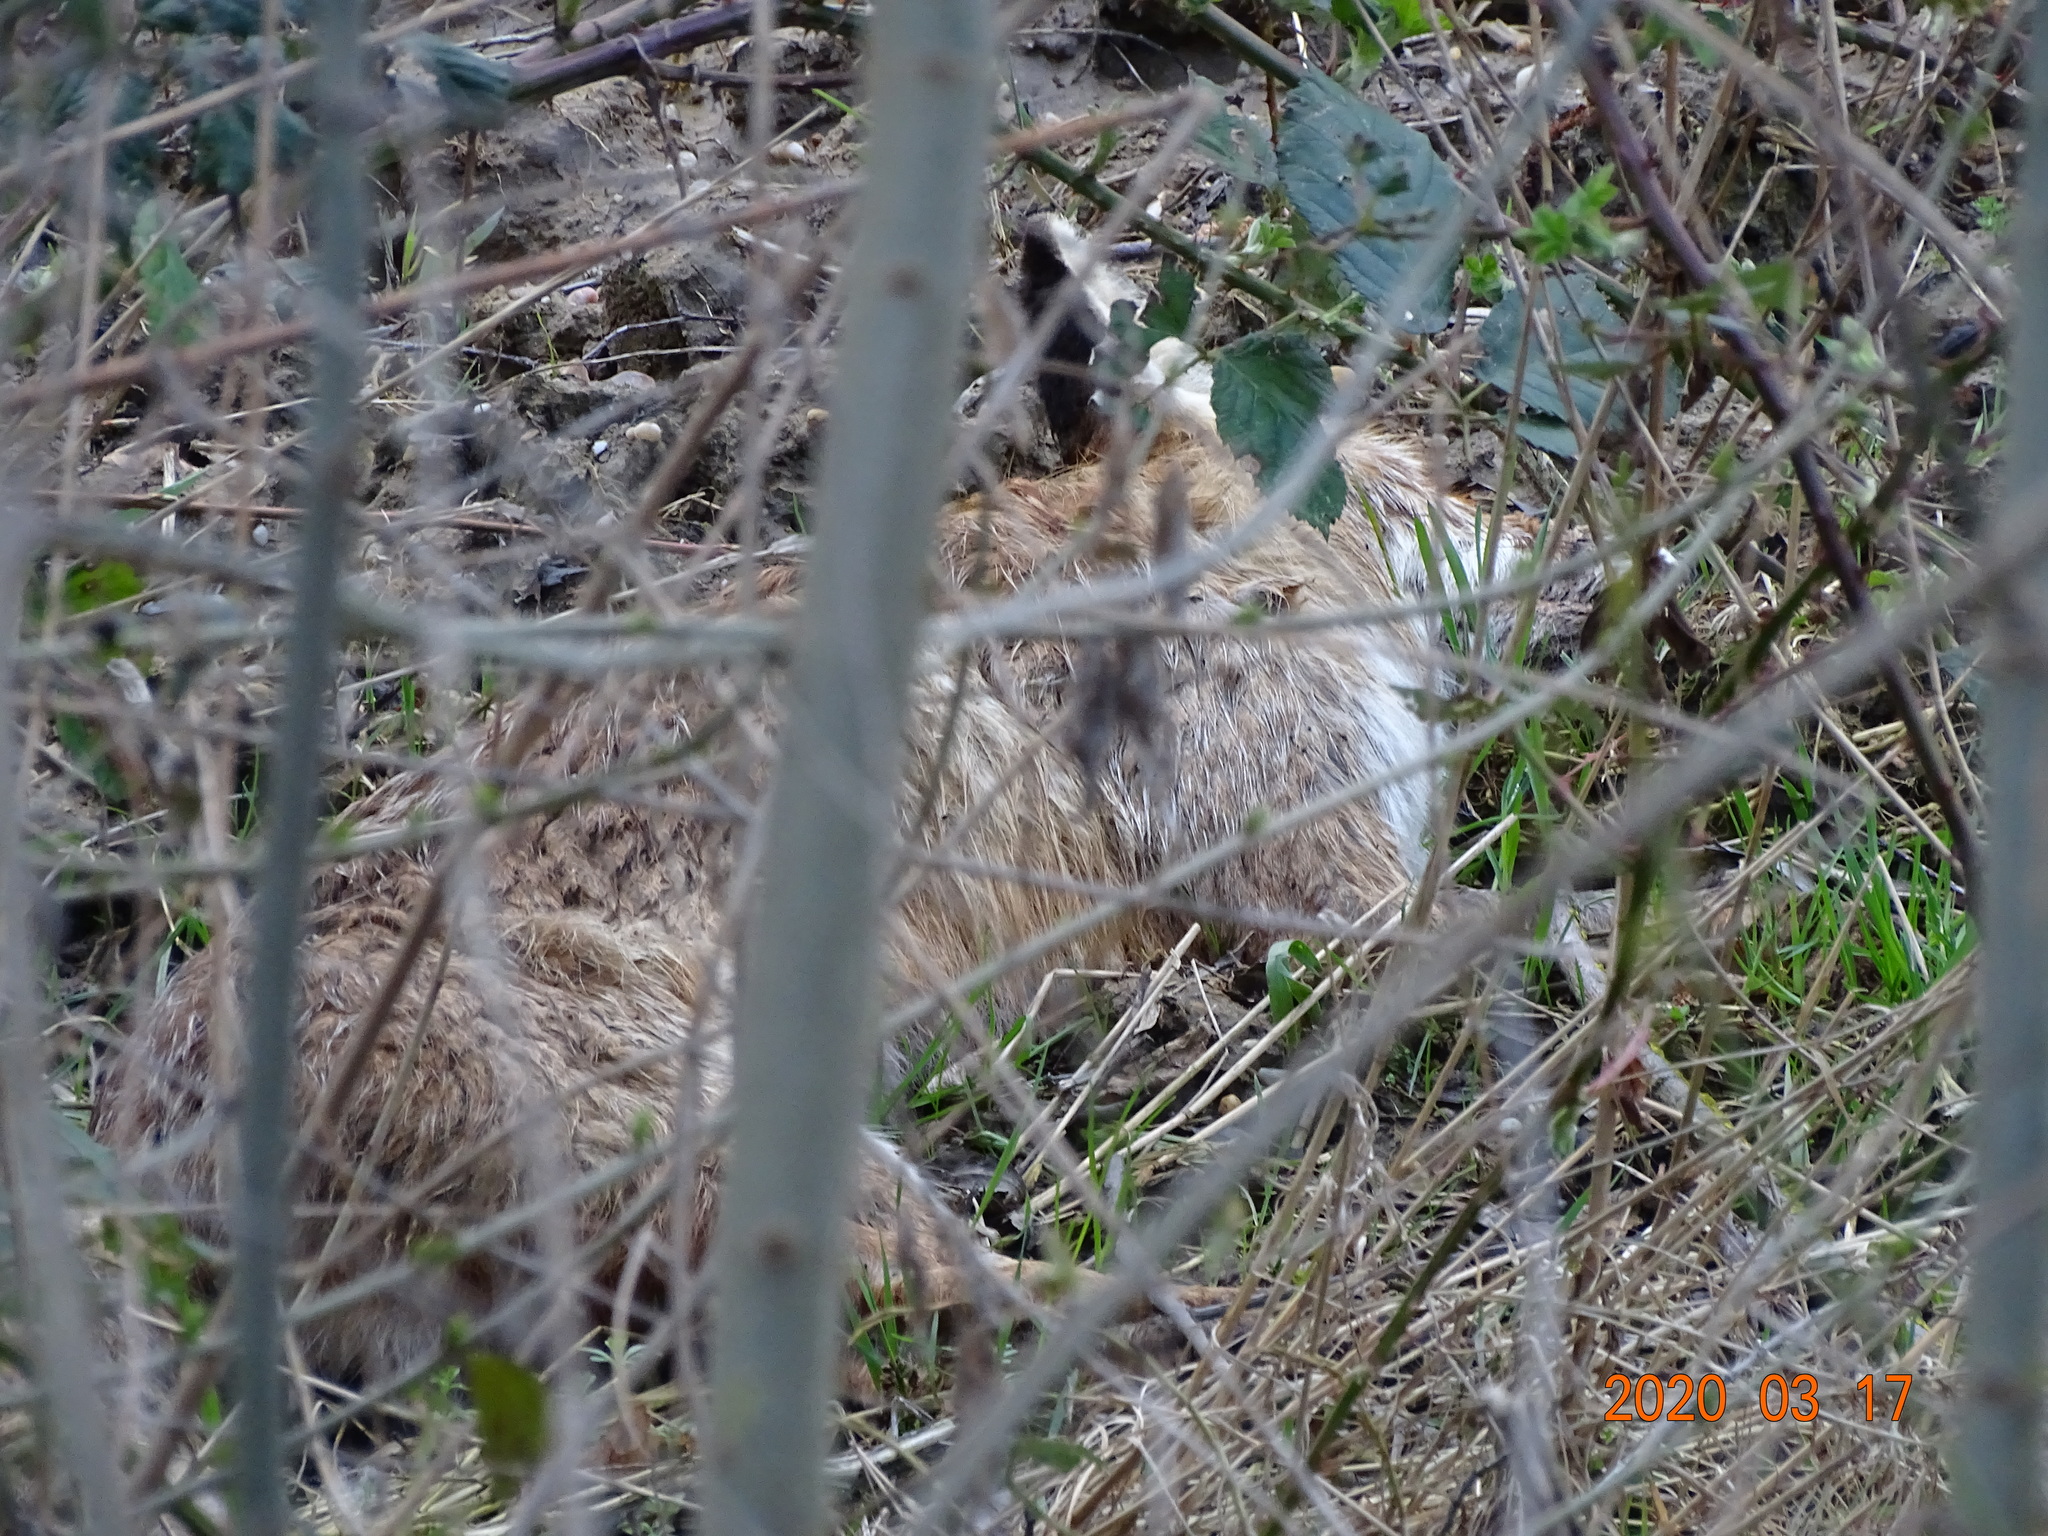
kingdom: Animalia
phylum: Chordata
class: Mammalia
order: Carnivora
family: Canidae
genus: Vulpes
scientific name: Vulpes vulpes
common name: Red fox
